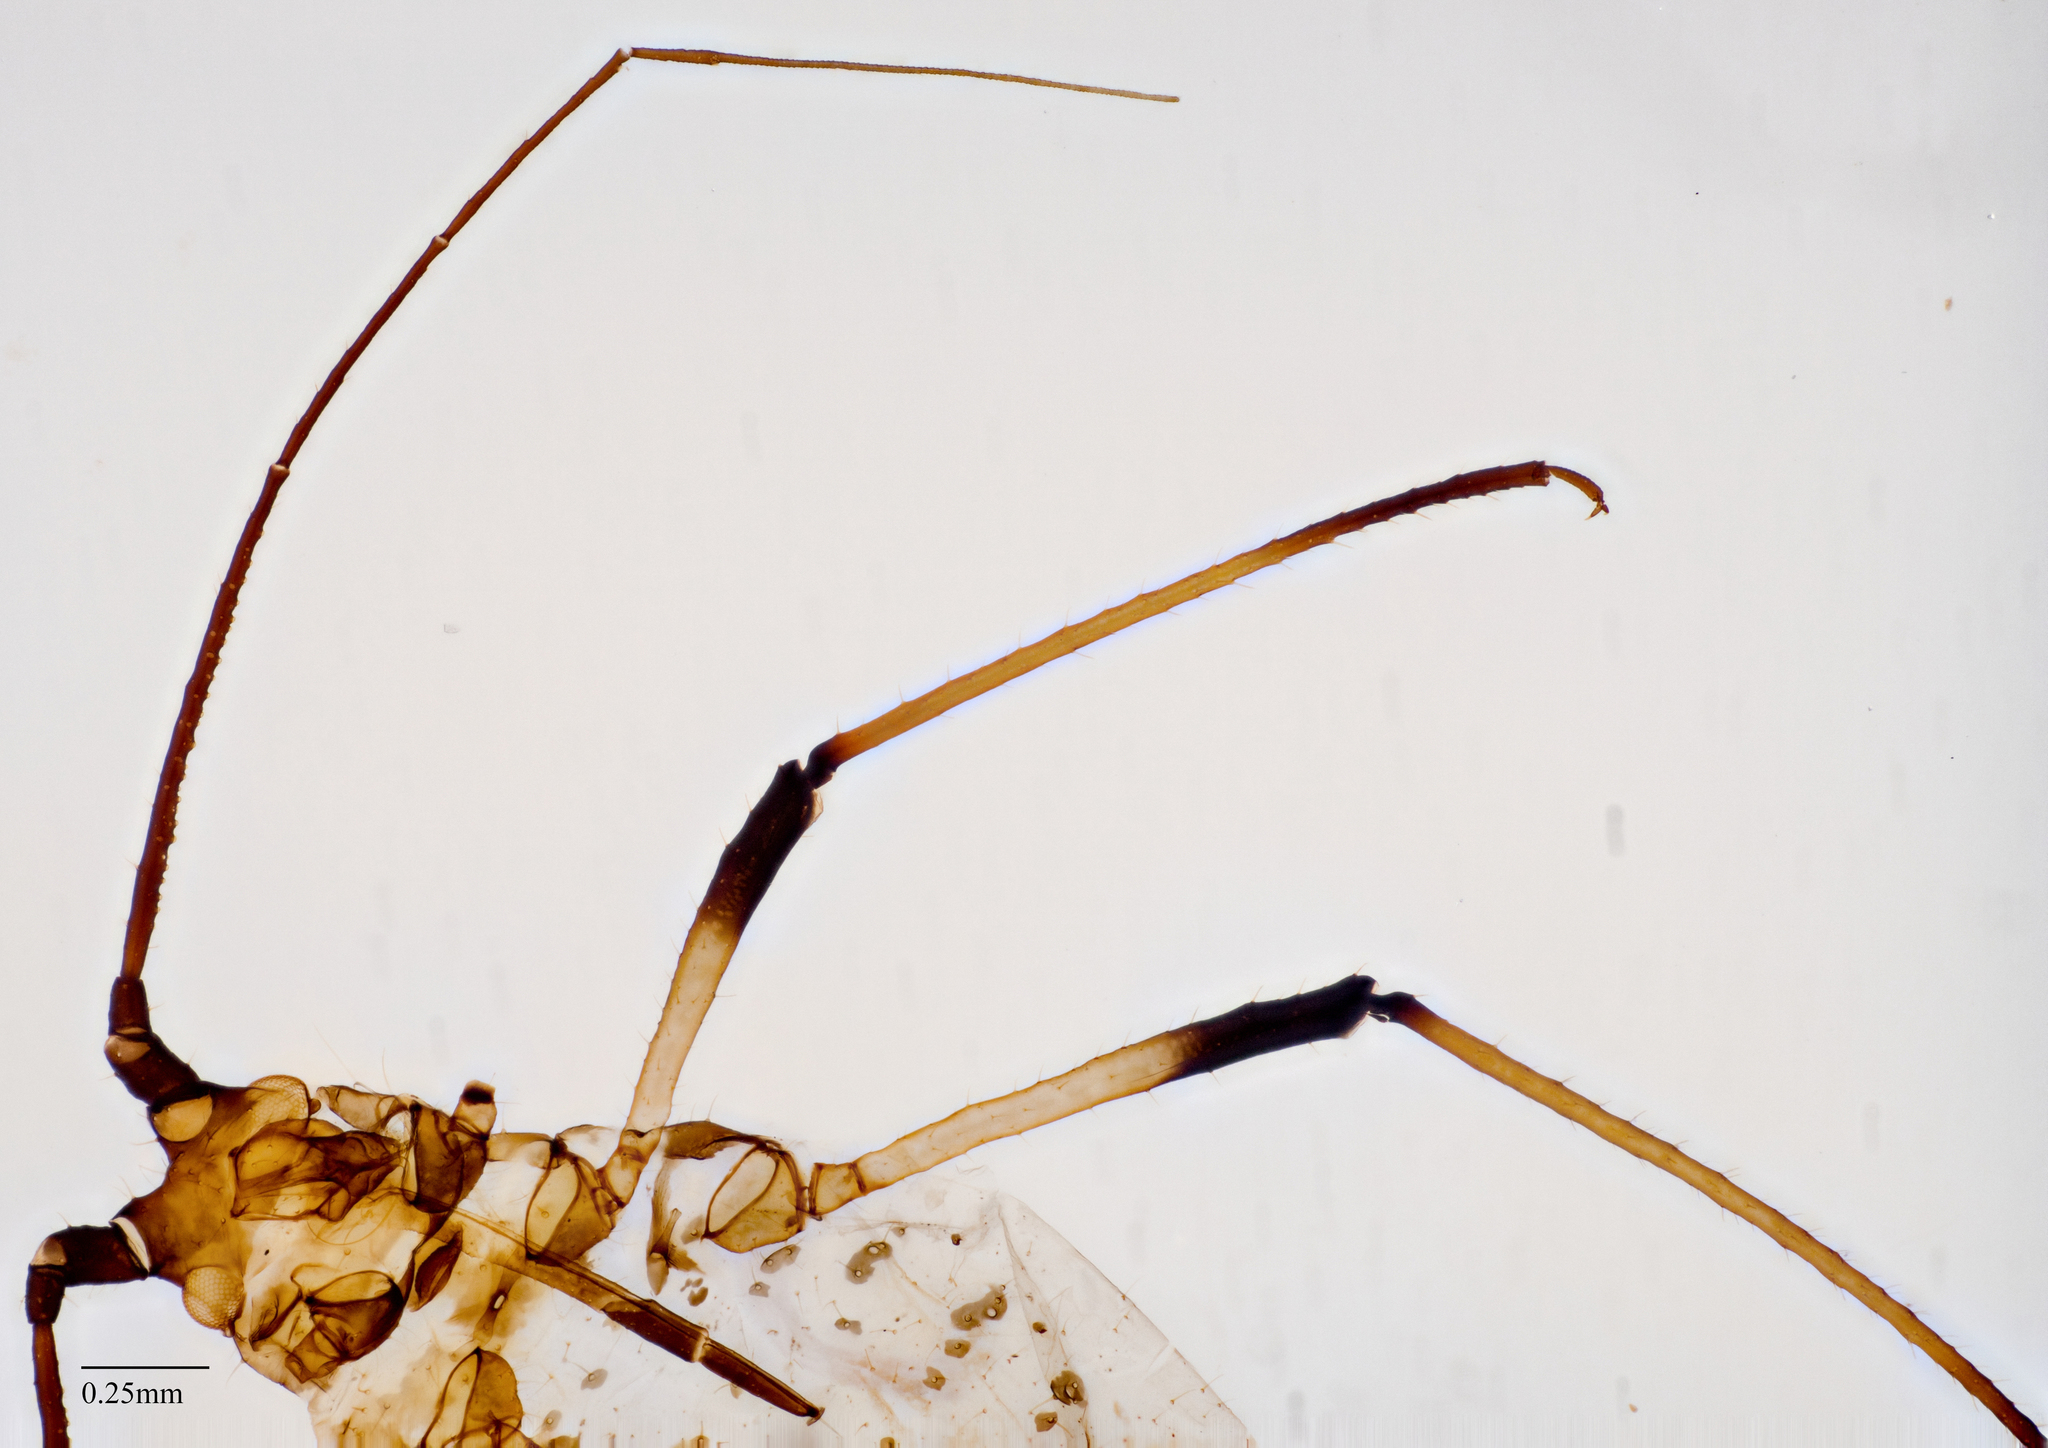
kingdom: Animalia
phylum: Arthropoda
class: Insecta
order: Hemiptera
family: Aphididae
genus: Uroleucon
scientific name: Uroleucon picridis
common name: Aphid
